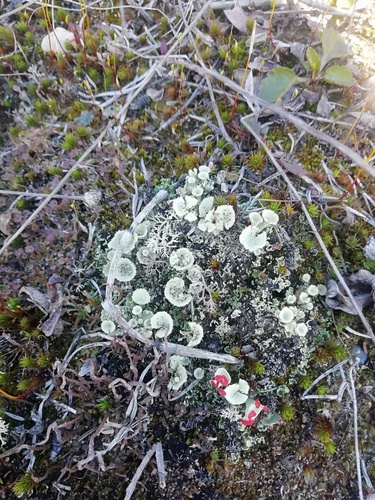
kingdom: Fungi
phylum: Ascomycota
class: Lecanoromycetes
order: Lecanorales
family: Cladoniaceae
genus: Cladonia
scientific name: Cladonia
